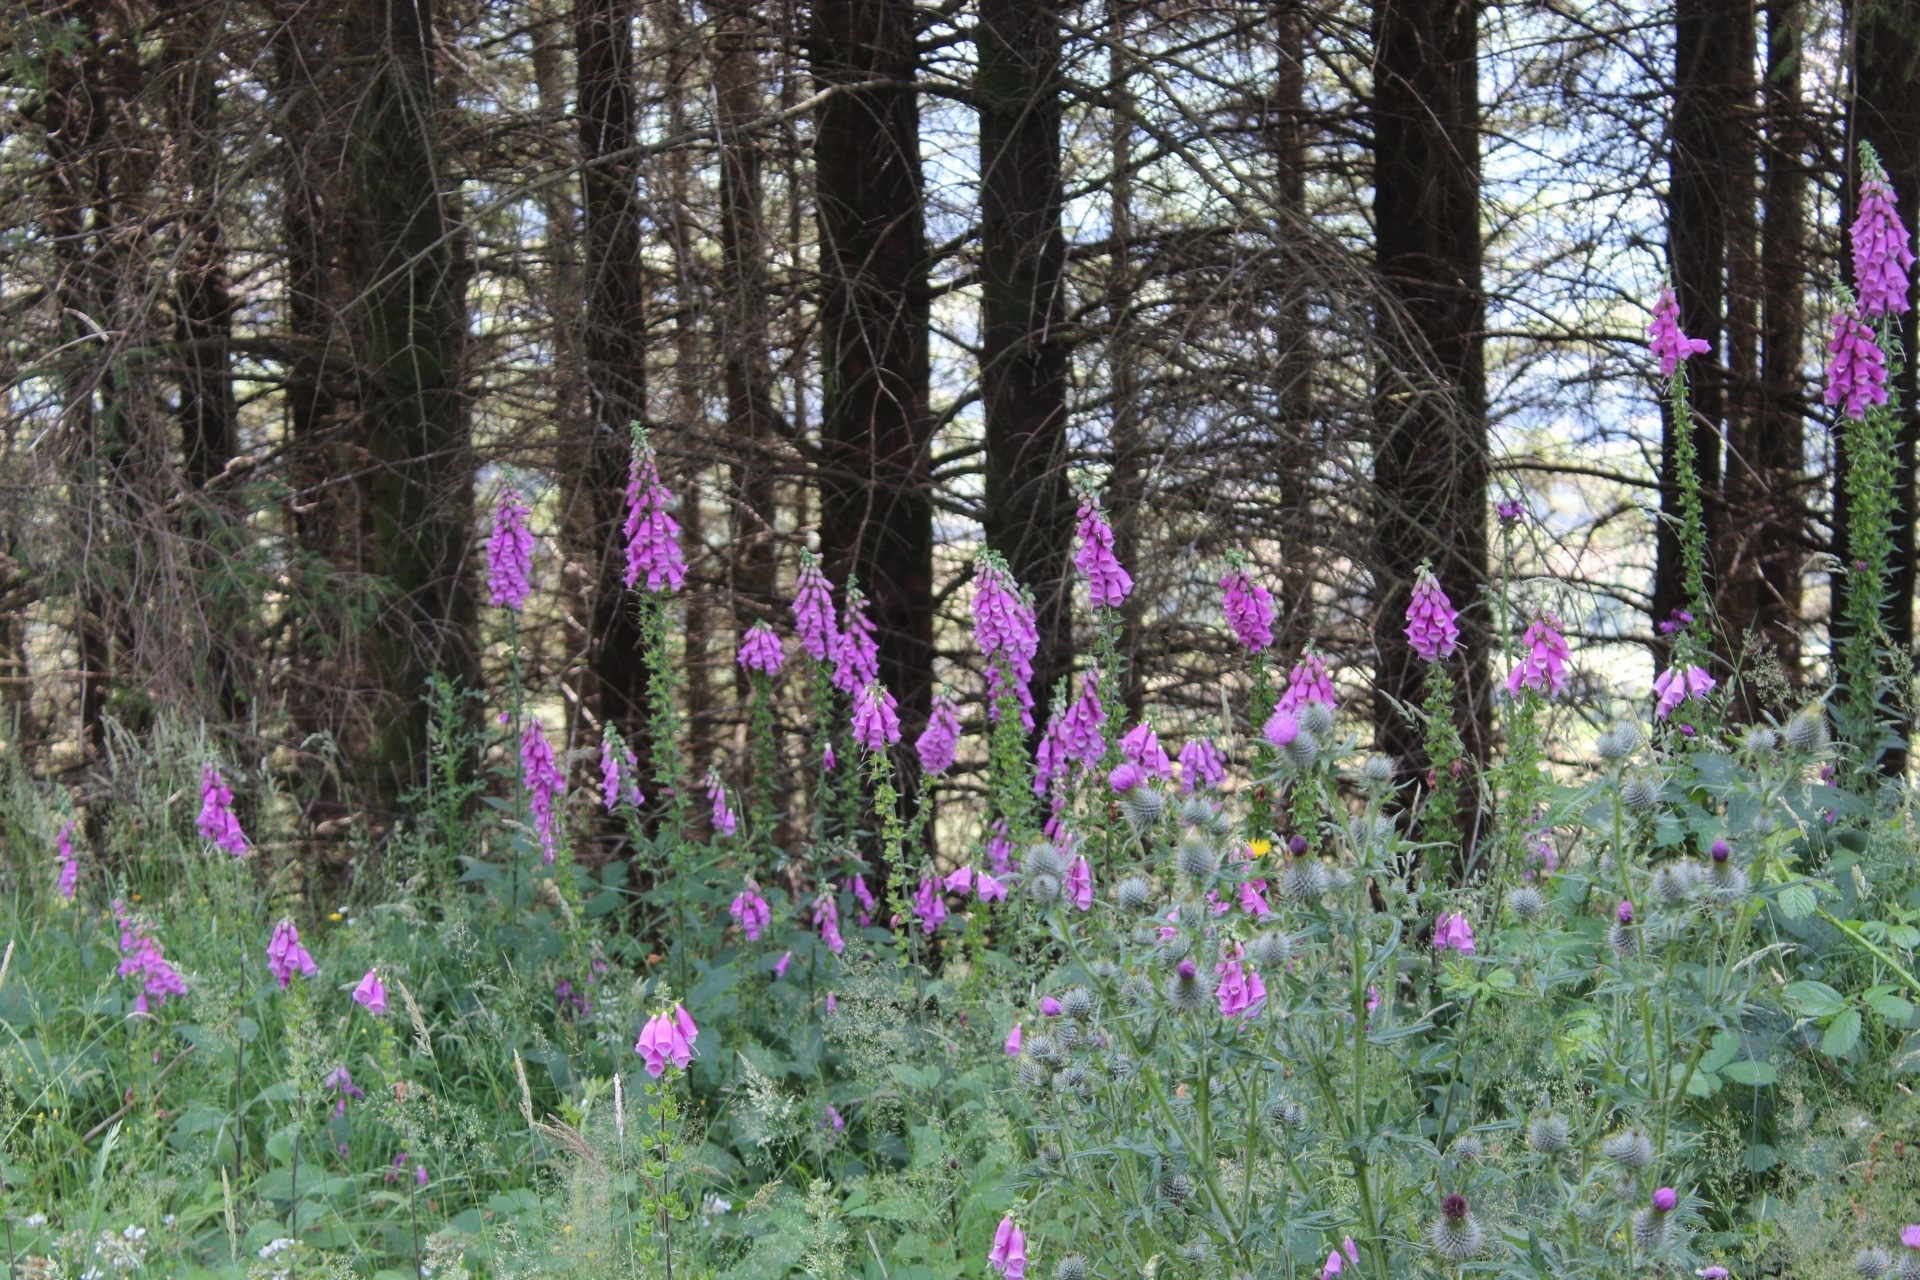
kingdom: Plantae
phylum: Tracheophyta
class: Magnoliopsida
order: Lamiales
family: Plantaginaceae
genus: Digitalis
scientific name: Digitalis purpurea
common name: Foxglove
